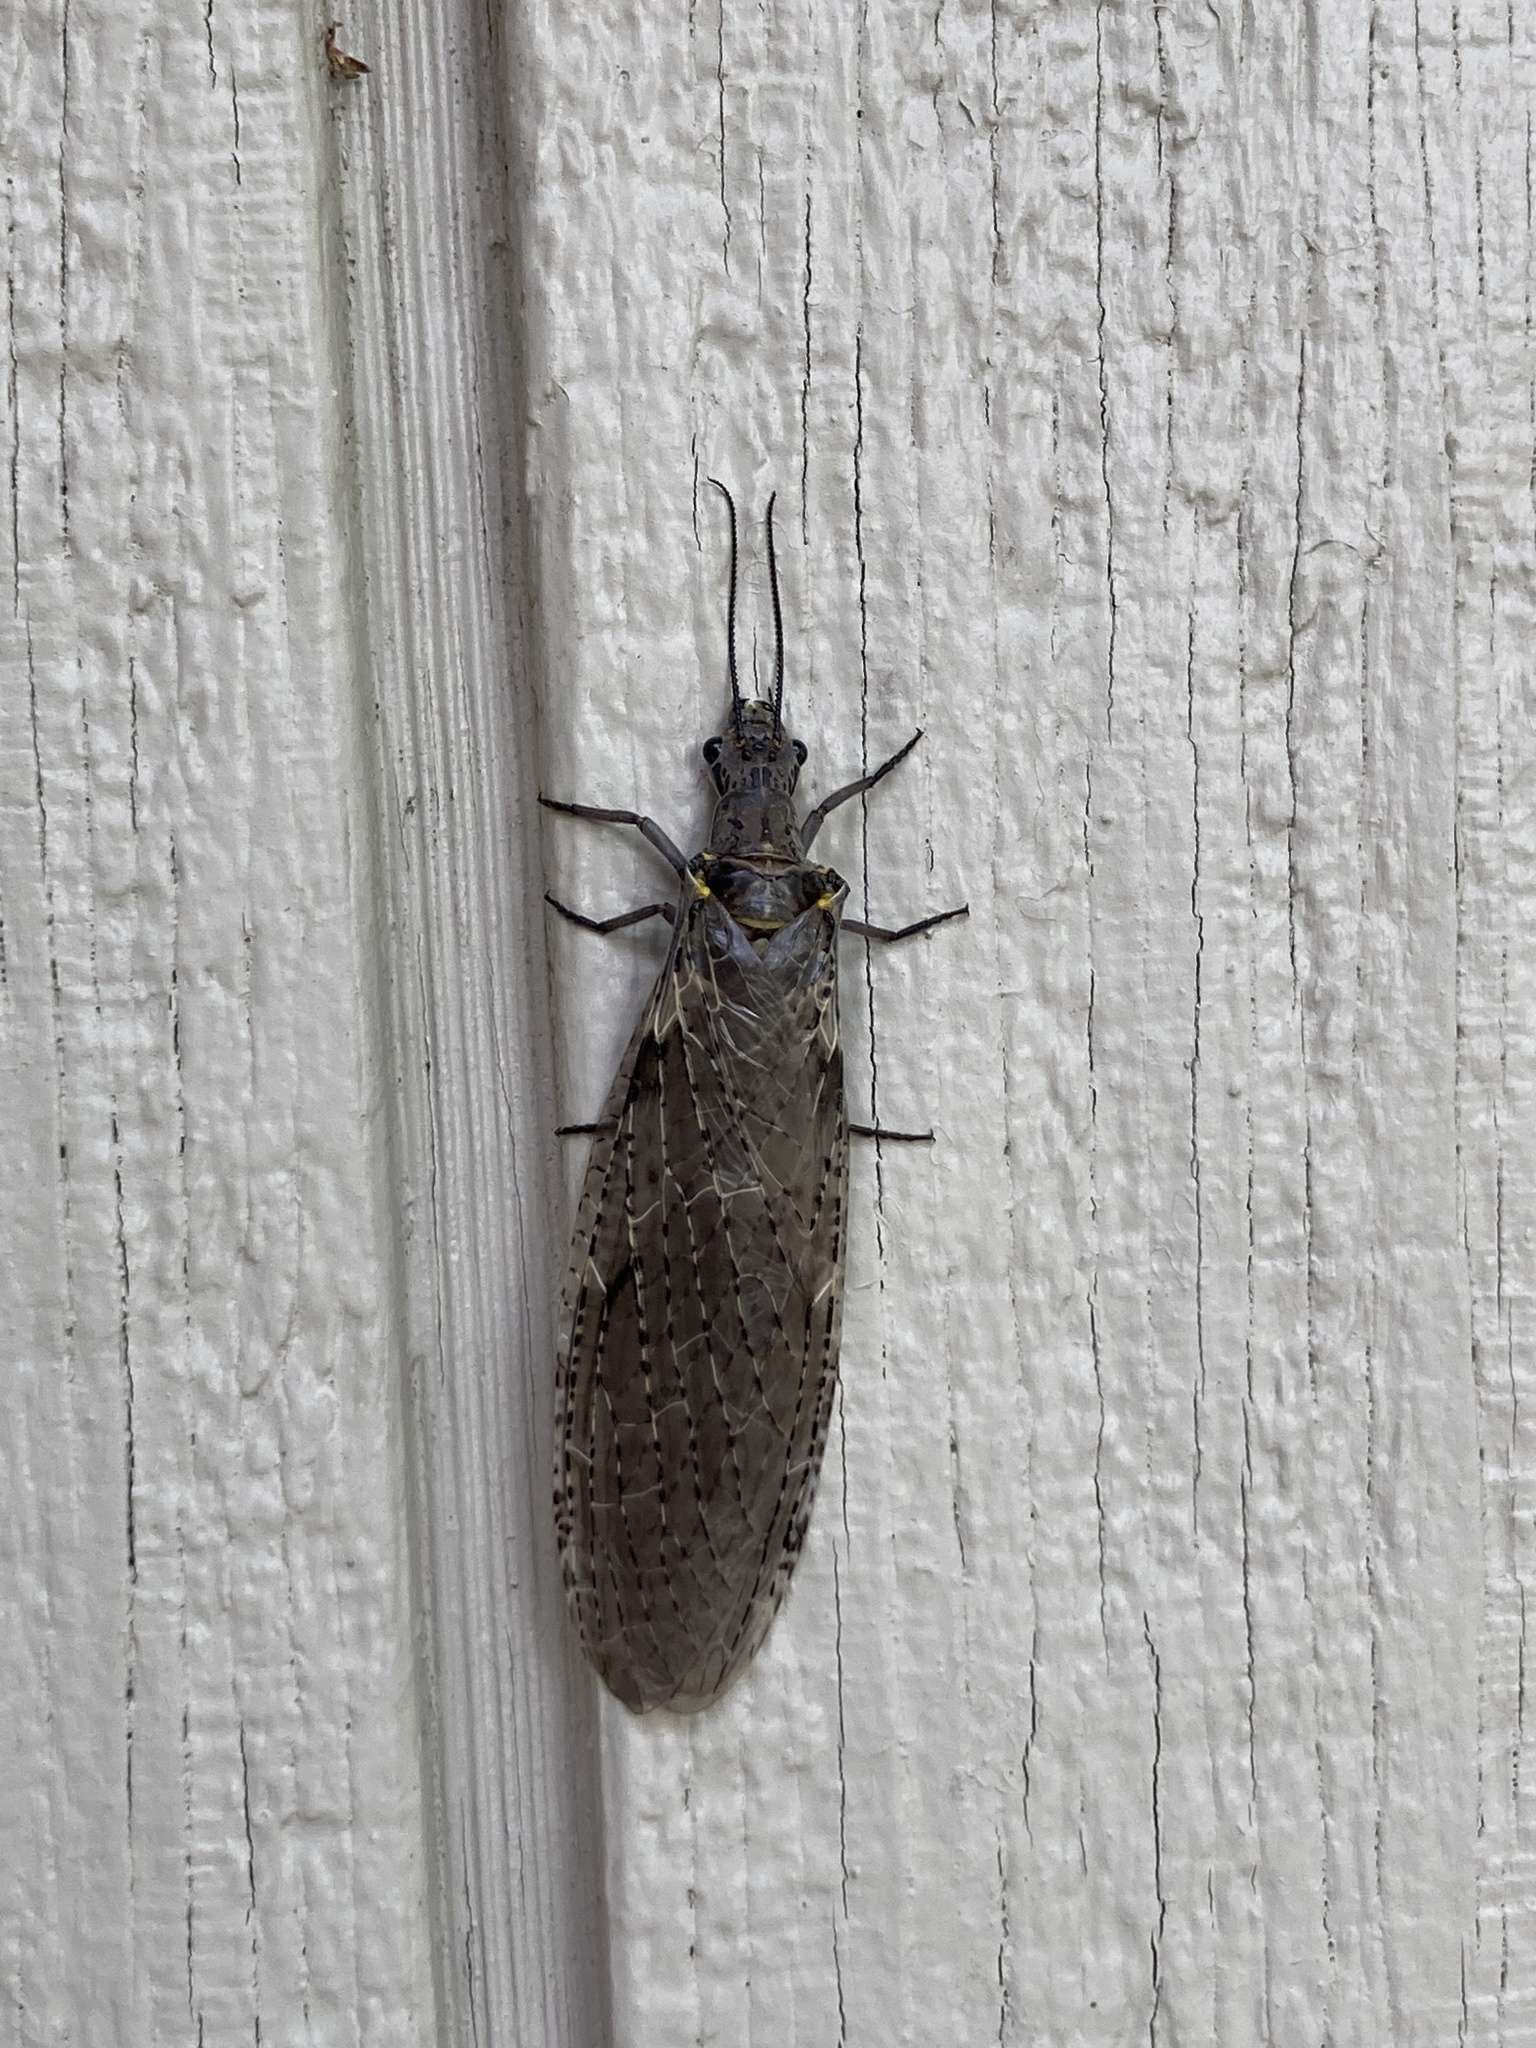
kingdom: Animalia
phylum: Arthropoda
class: Insecta
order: Megaloptera
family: Corydalidae
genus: Chauliodes
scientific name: Chauliodes rastricornis
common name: Spring fishfly
